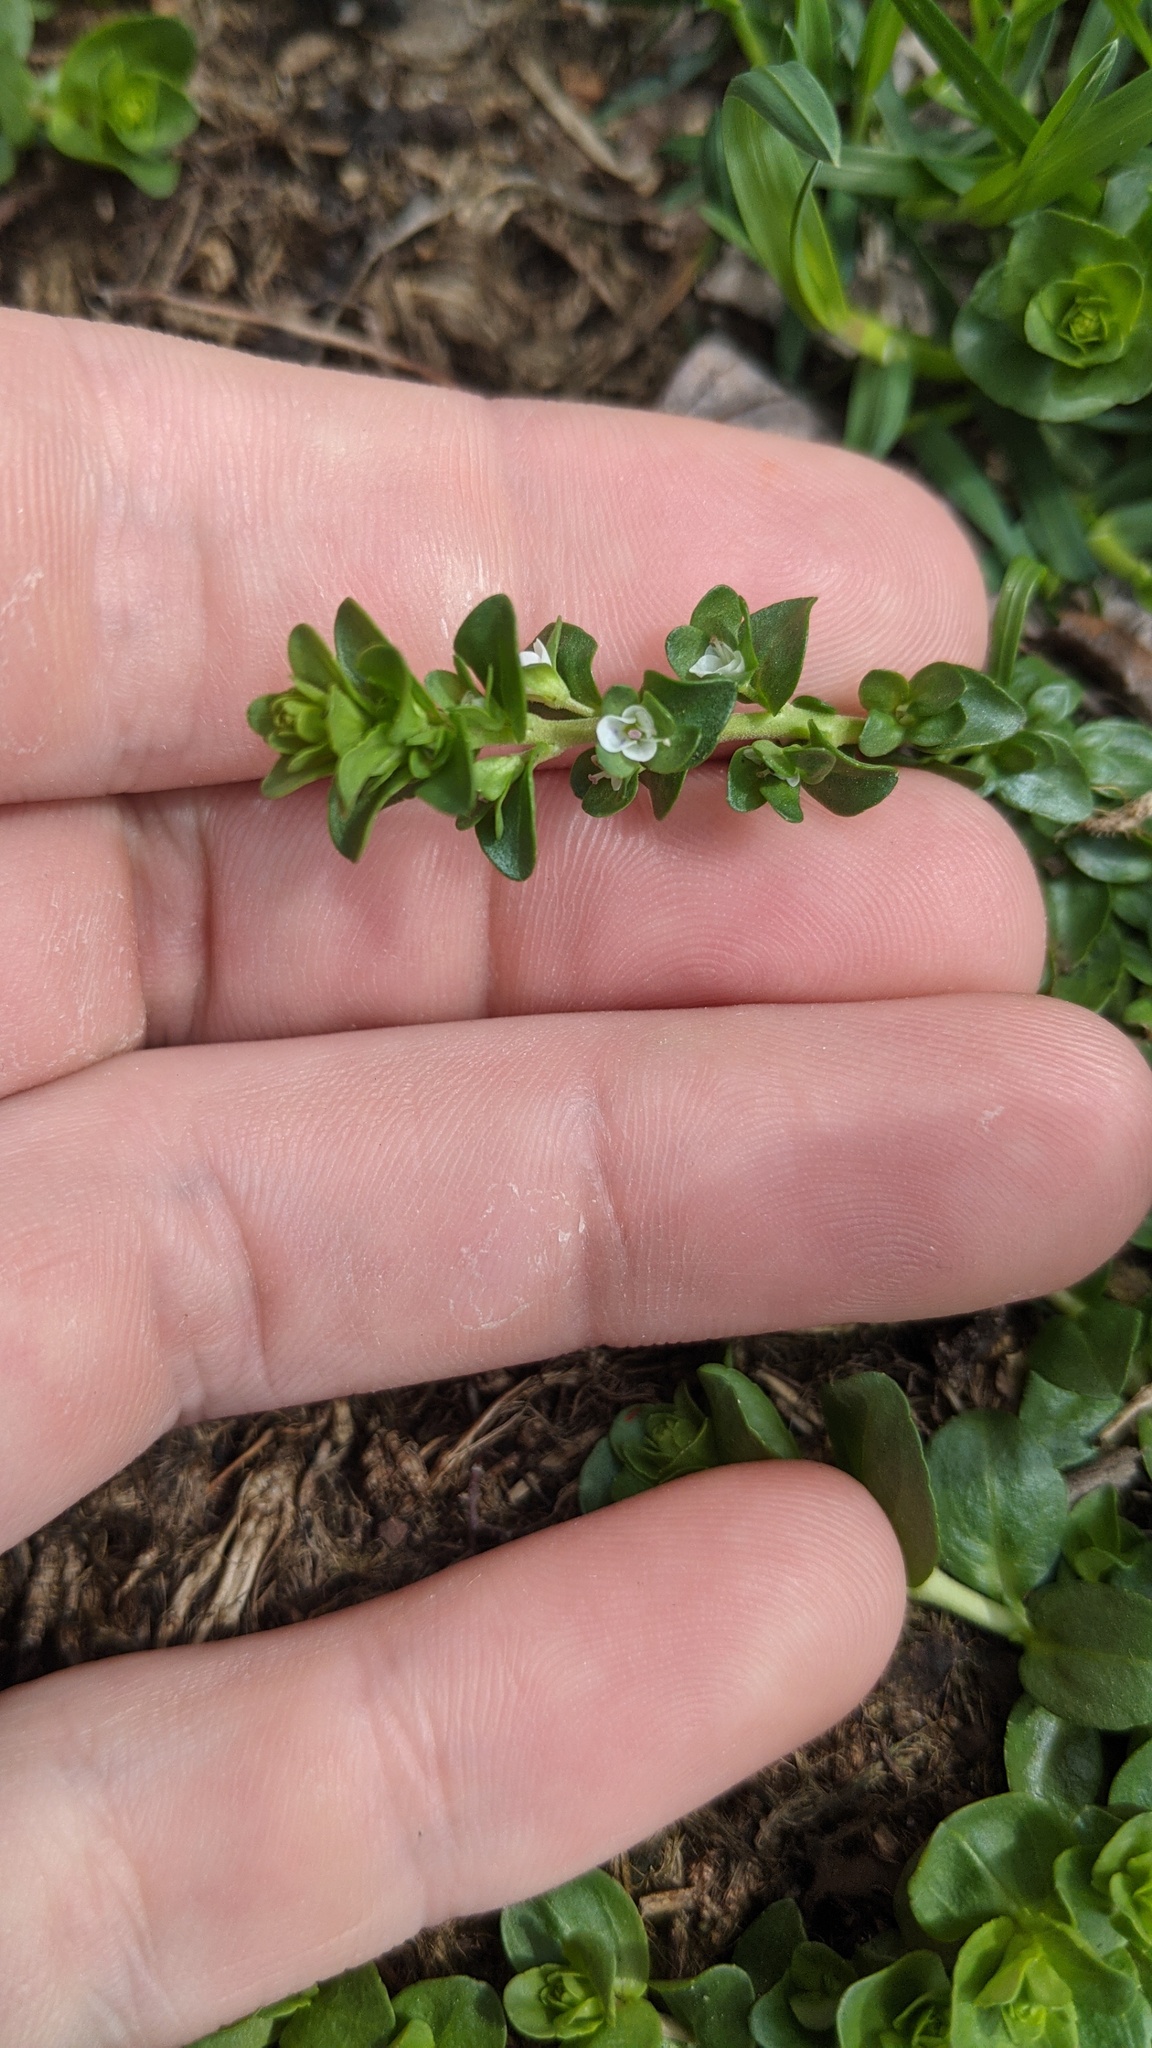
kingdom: Plantae
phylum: Tracheophyta
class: Magnoliopsida
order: Lamiales
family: Plantaginaceae
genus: Veronica
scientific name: Veronica serpyllifolia
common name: Thyme-leaved speedwell
